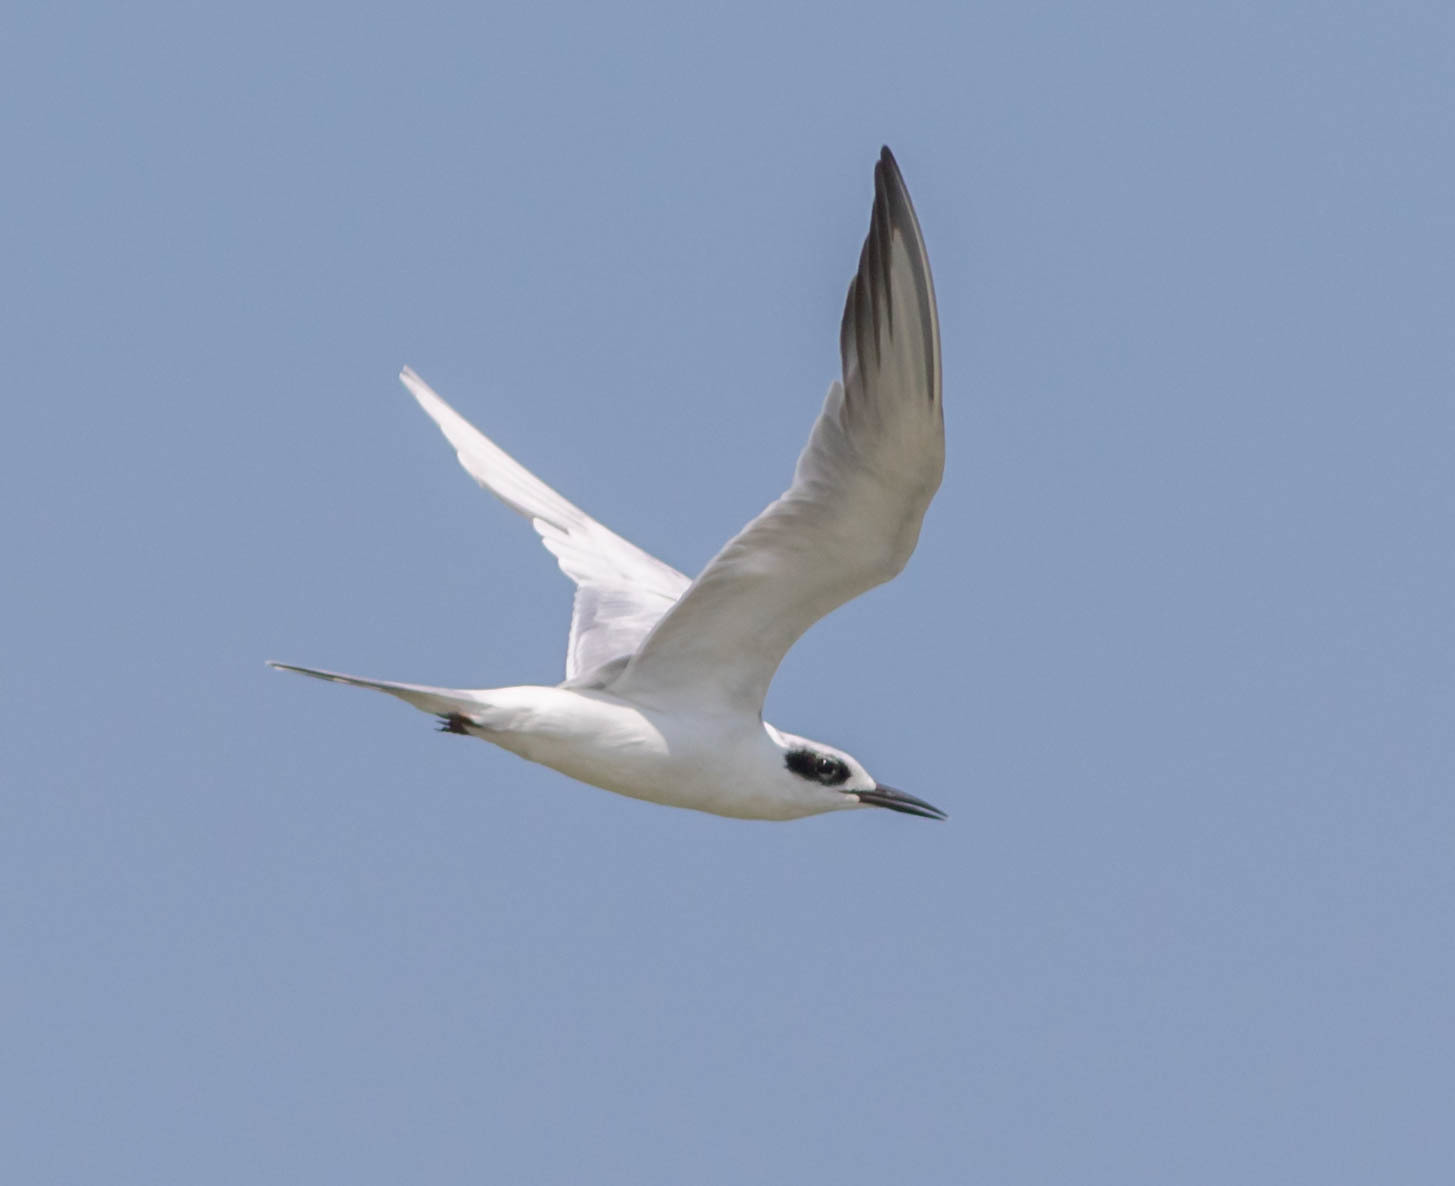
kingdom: Animalia
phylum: Chordata
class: Aves
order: Charadriiformes
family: Laridae
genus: Sterna
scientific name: Sterna forsteri
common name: Forster's tern
